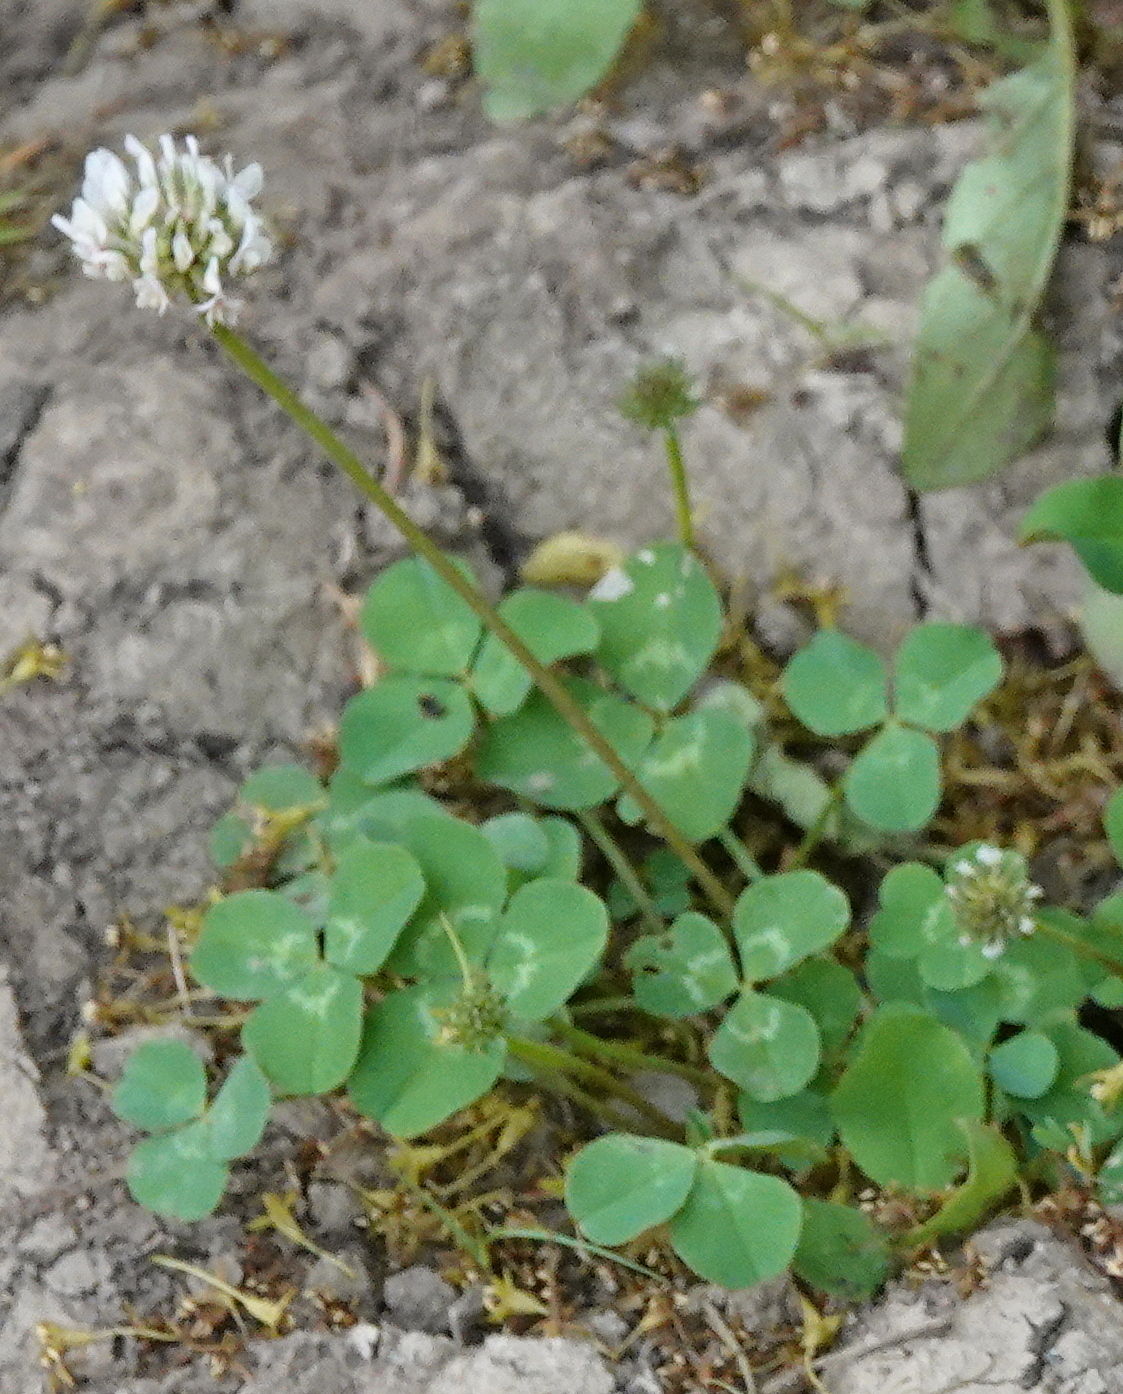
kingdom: Plantae
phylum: Tracheophyta
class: Magnoliopsida
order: Fabales
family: Fabaceae
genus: Trifolium
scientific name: Trifolium repens
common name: White clover
